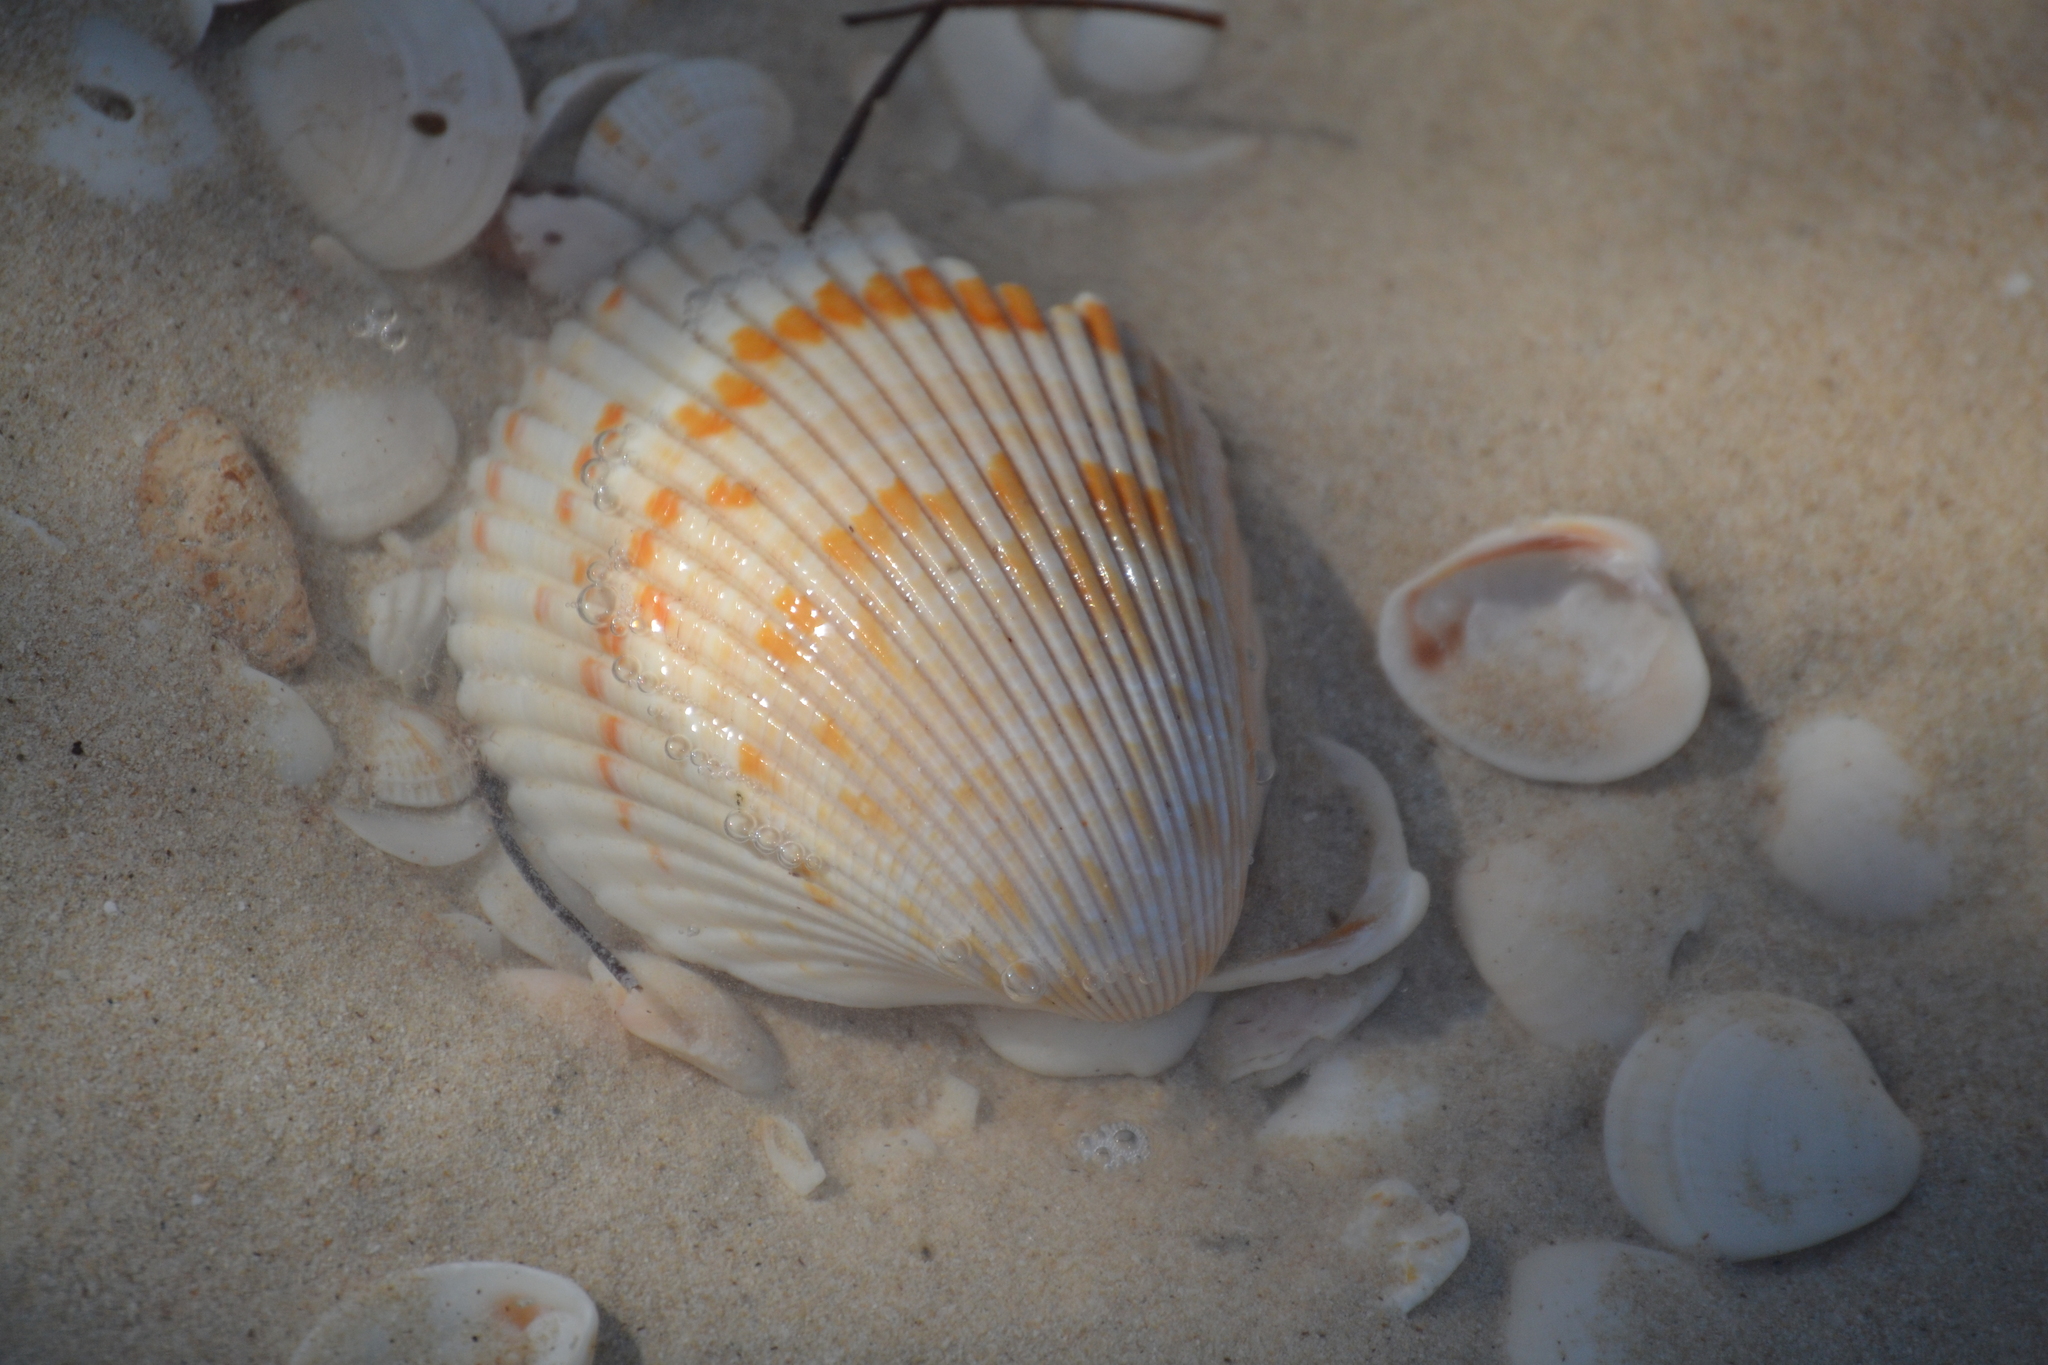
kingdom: Animalia
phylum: Mollusca
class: Bivalvia
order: Cardiida
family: Cardiidae
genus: Dinocardium
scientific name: Dinocardium robustum
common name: Atlantic giant cockle
